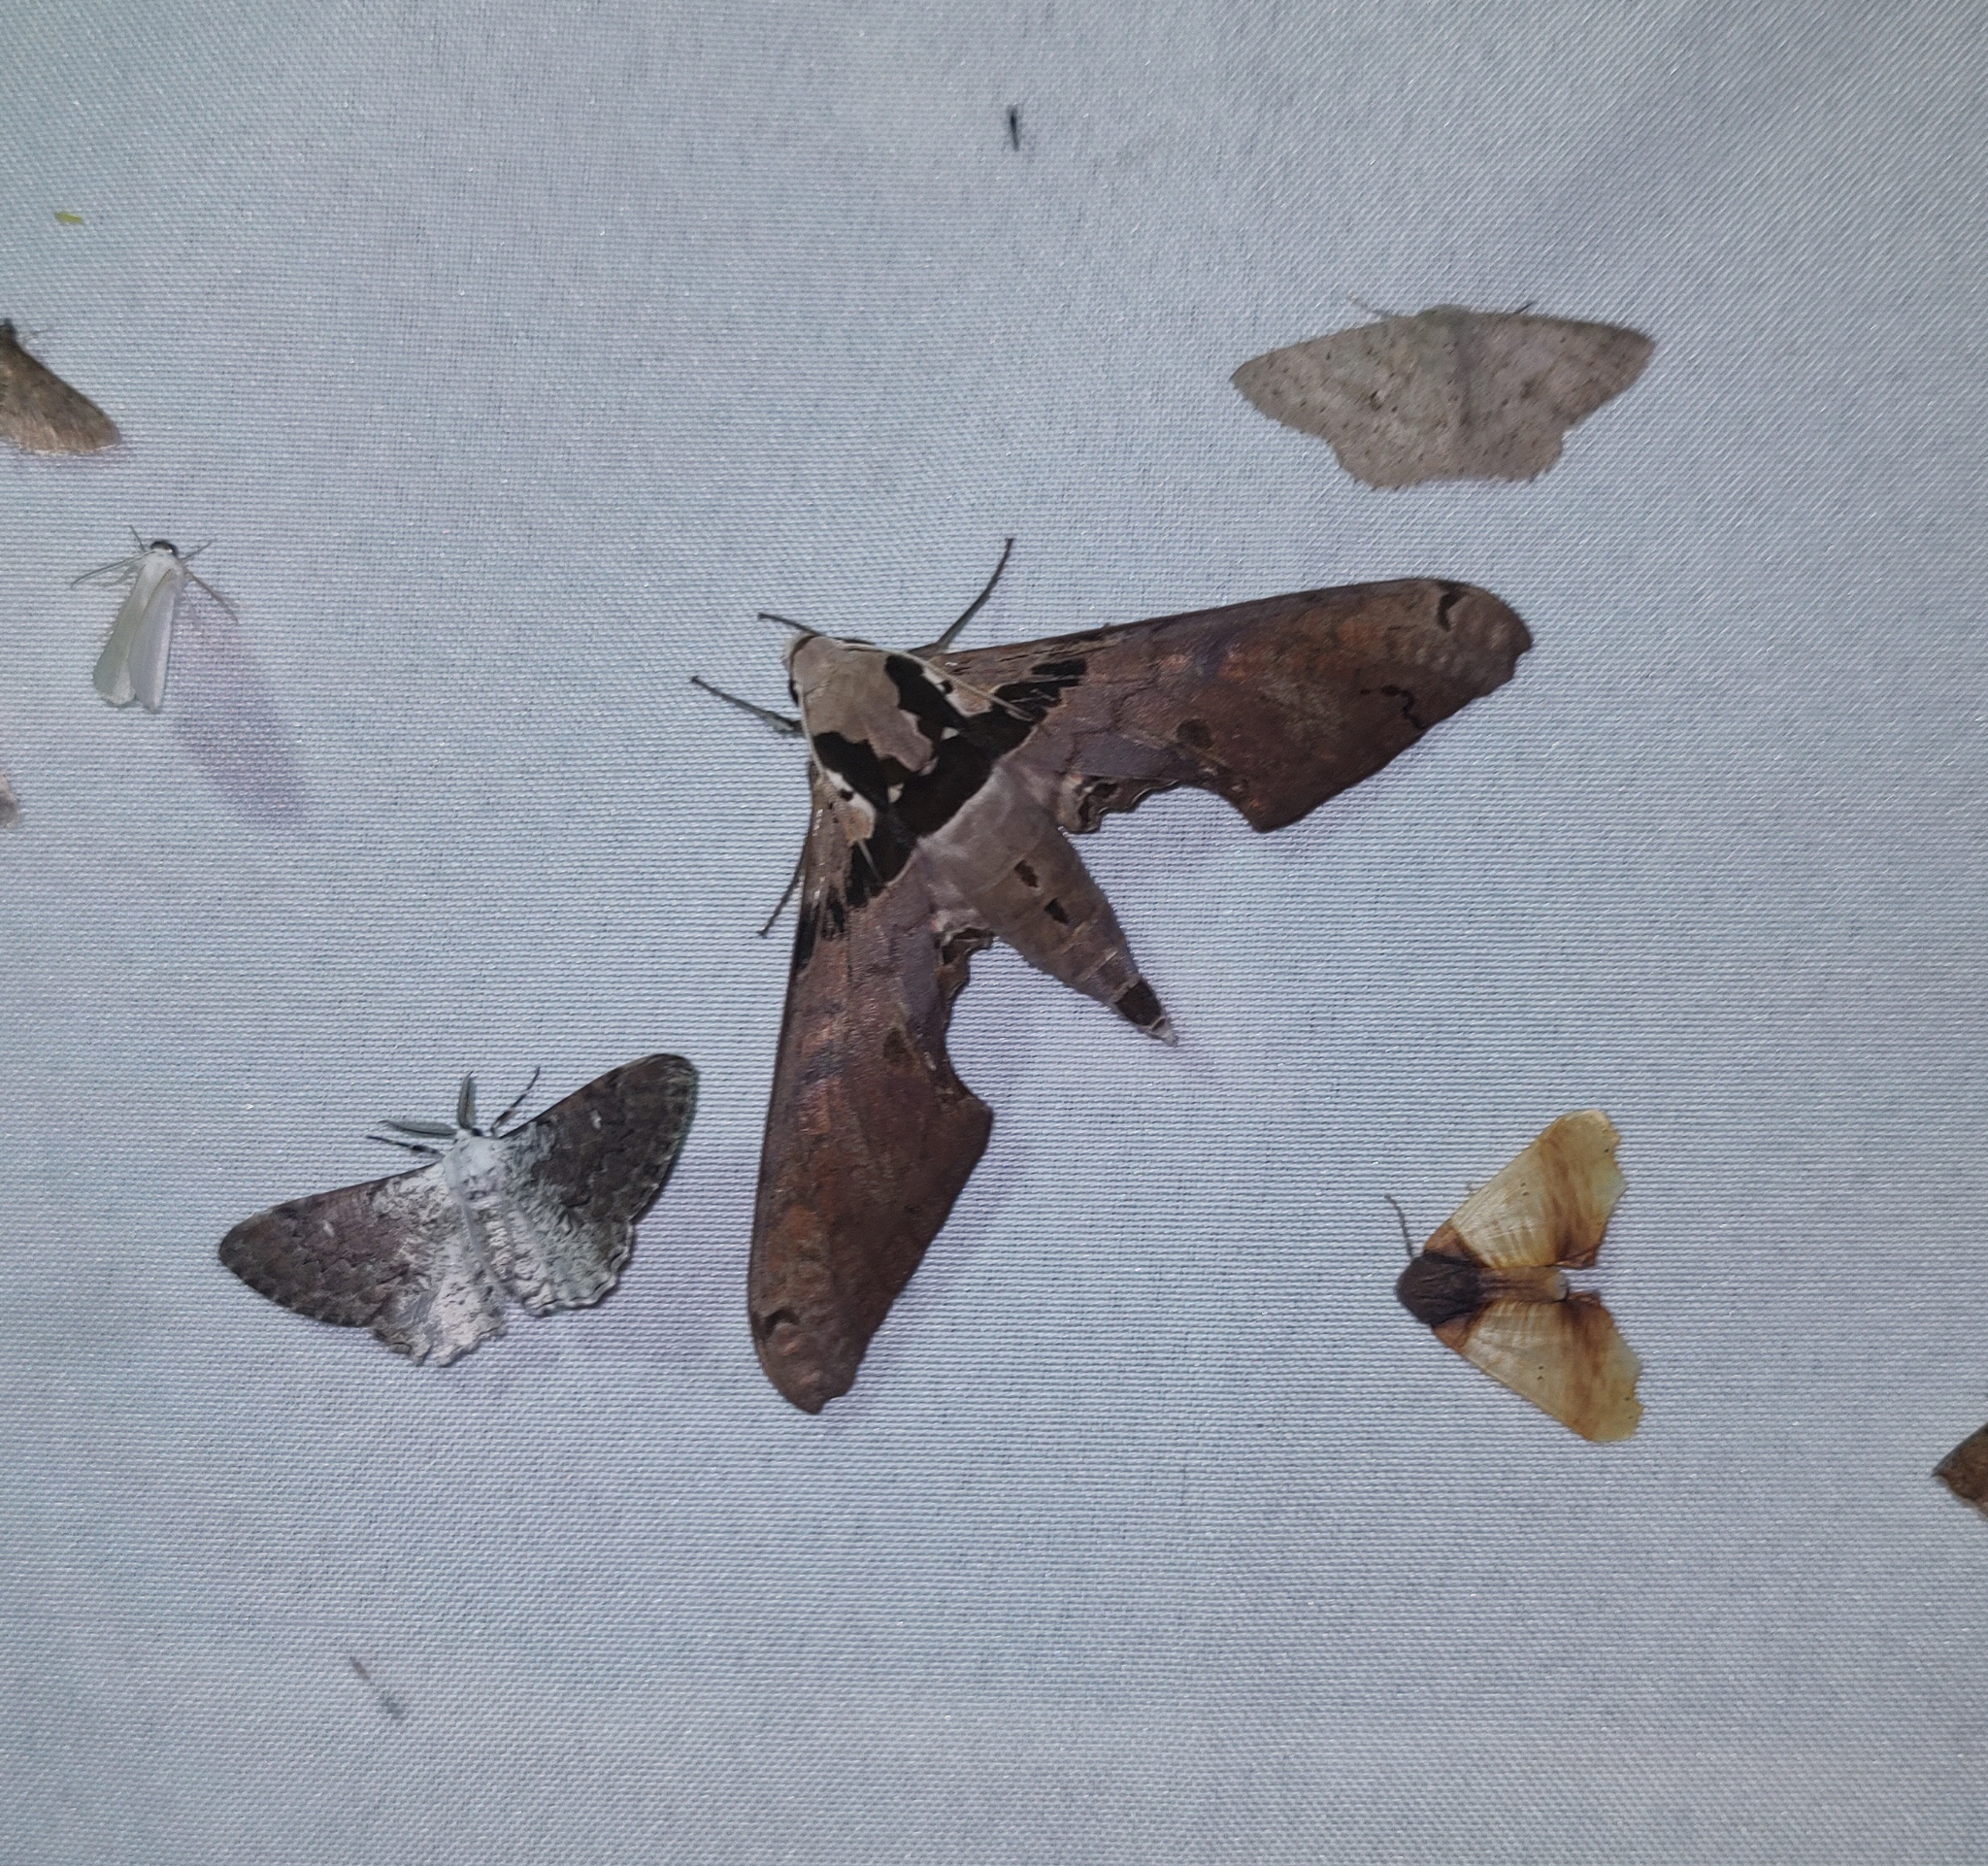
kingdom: Animalia
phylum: Arthropoda
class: Insecta
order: Lepidoptera
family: Sphingidae
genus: Adhemarius
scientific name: Adhemarius gannascus
